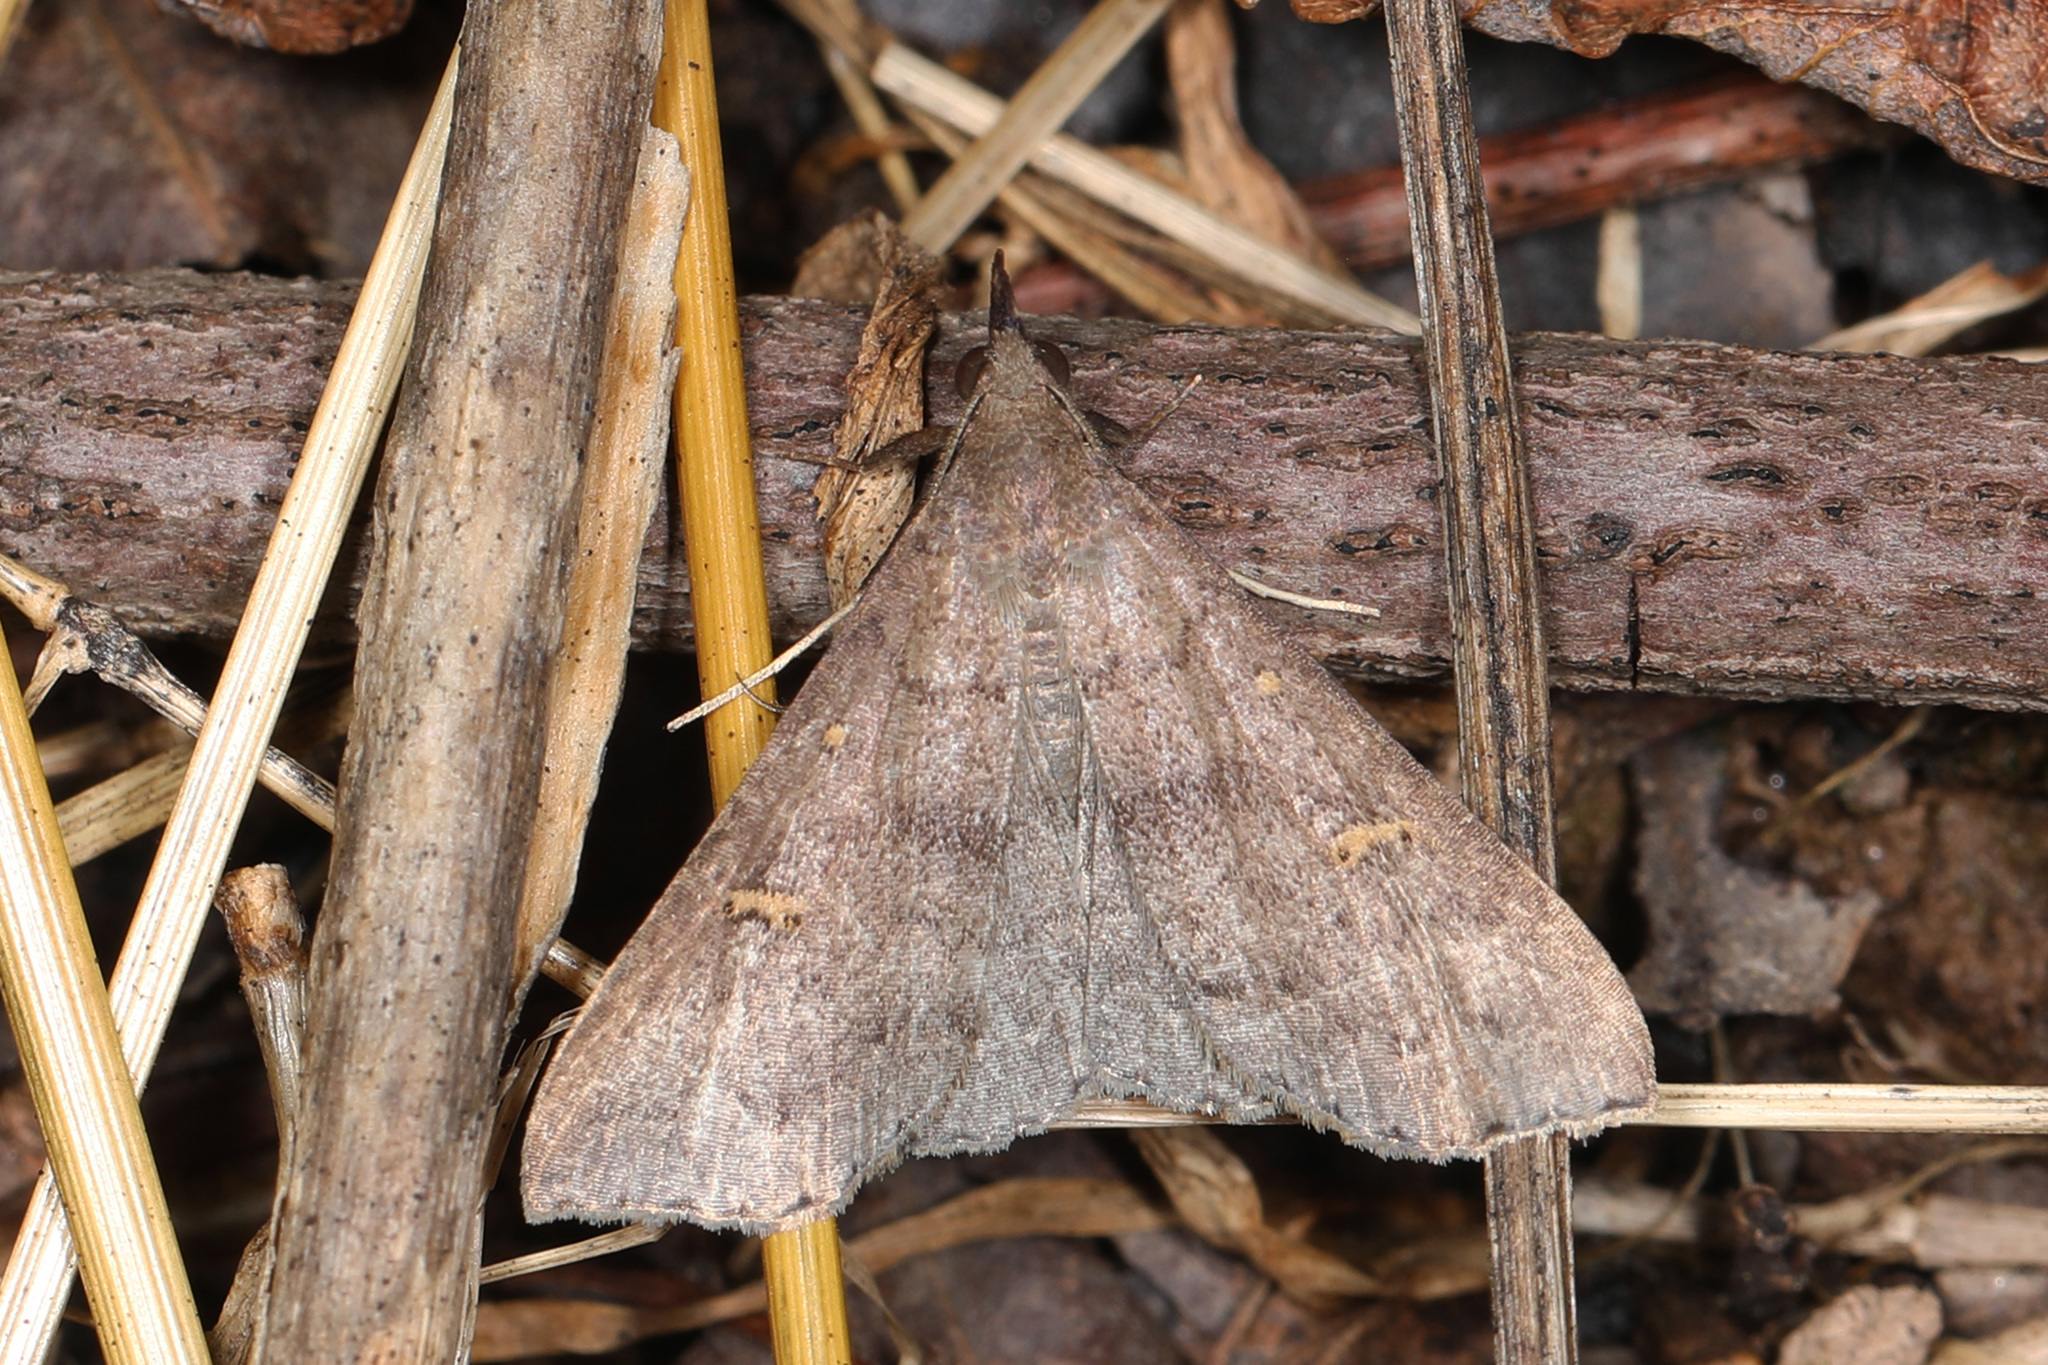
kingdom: Animalia
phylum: Arthropoda
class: Insecta
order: Lepidoptera
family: Erebidae
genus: Renia
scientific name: Renia adspergillus
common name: Speckled renia moth
